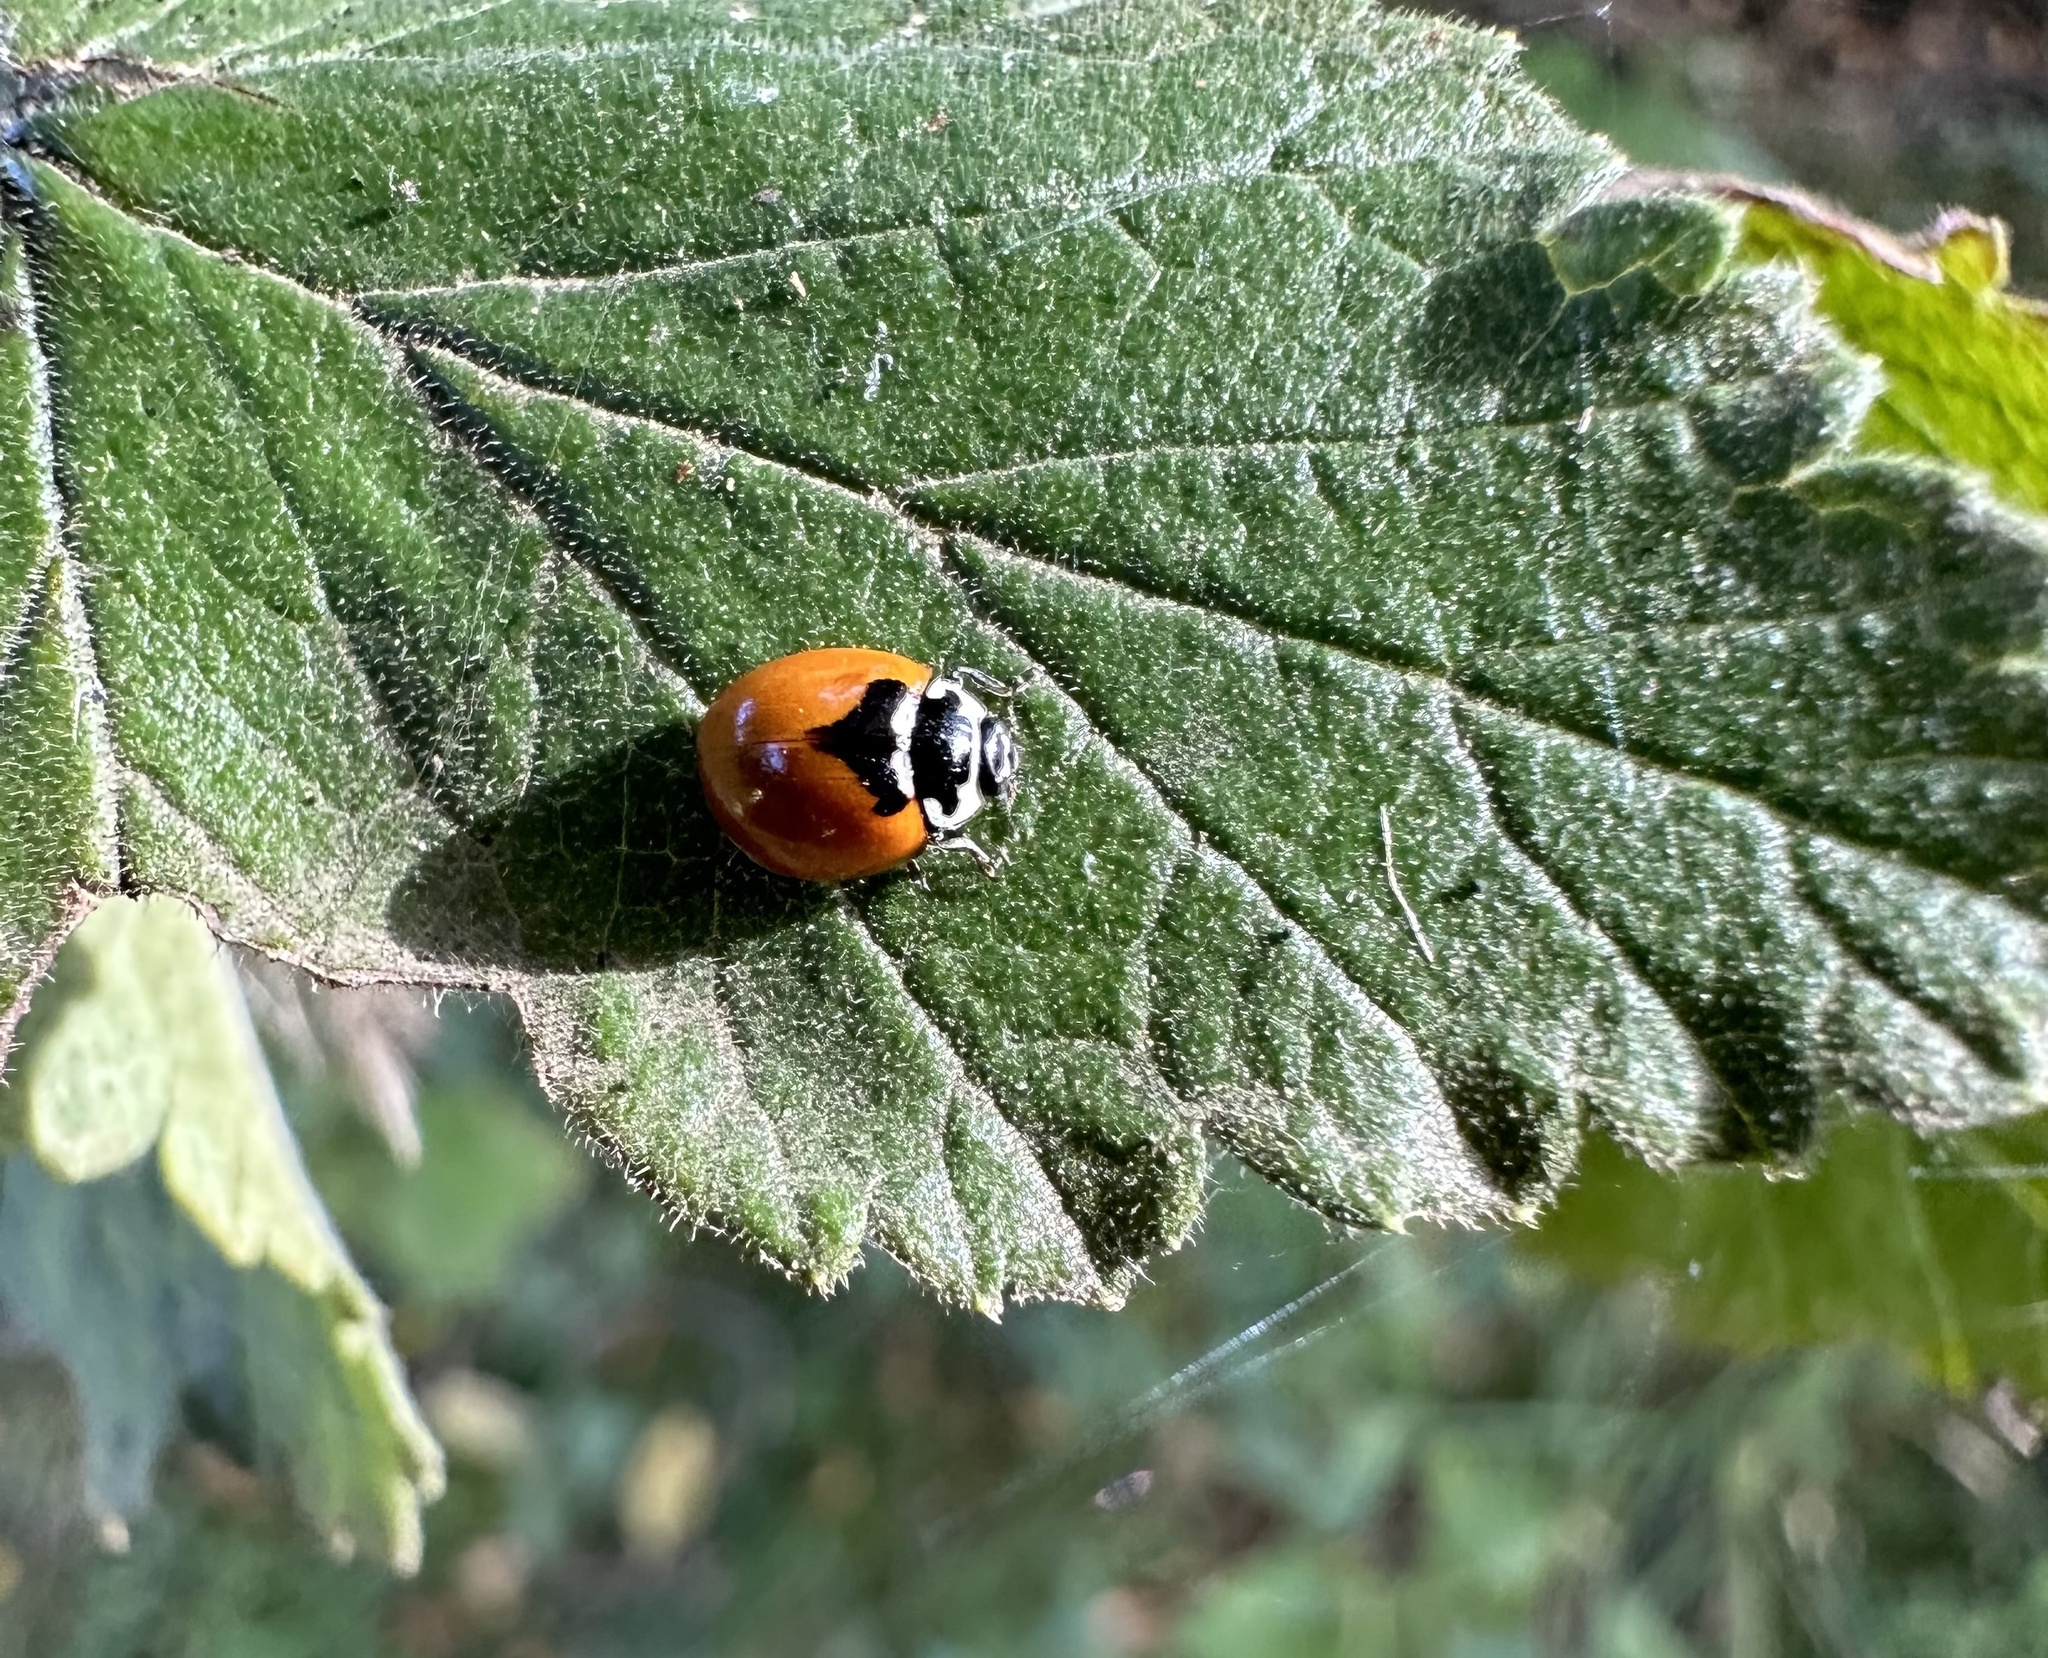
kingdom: Animalia
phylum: Arthropoda
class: Insecta
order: Coleoptera
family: Coccinellidae
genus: Adalia
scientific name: Adalia deficiens
